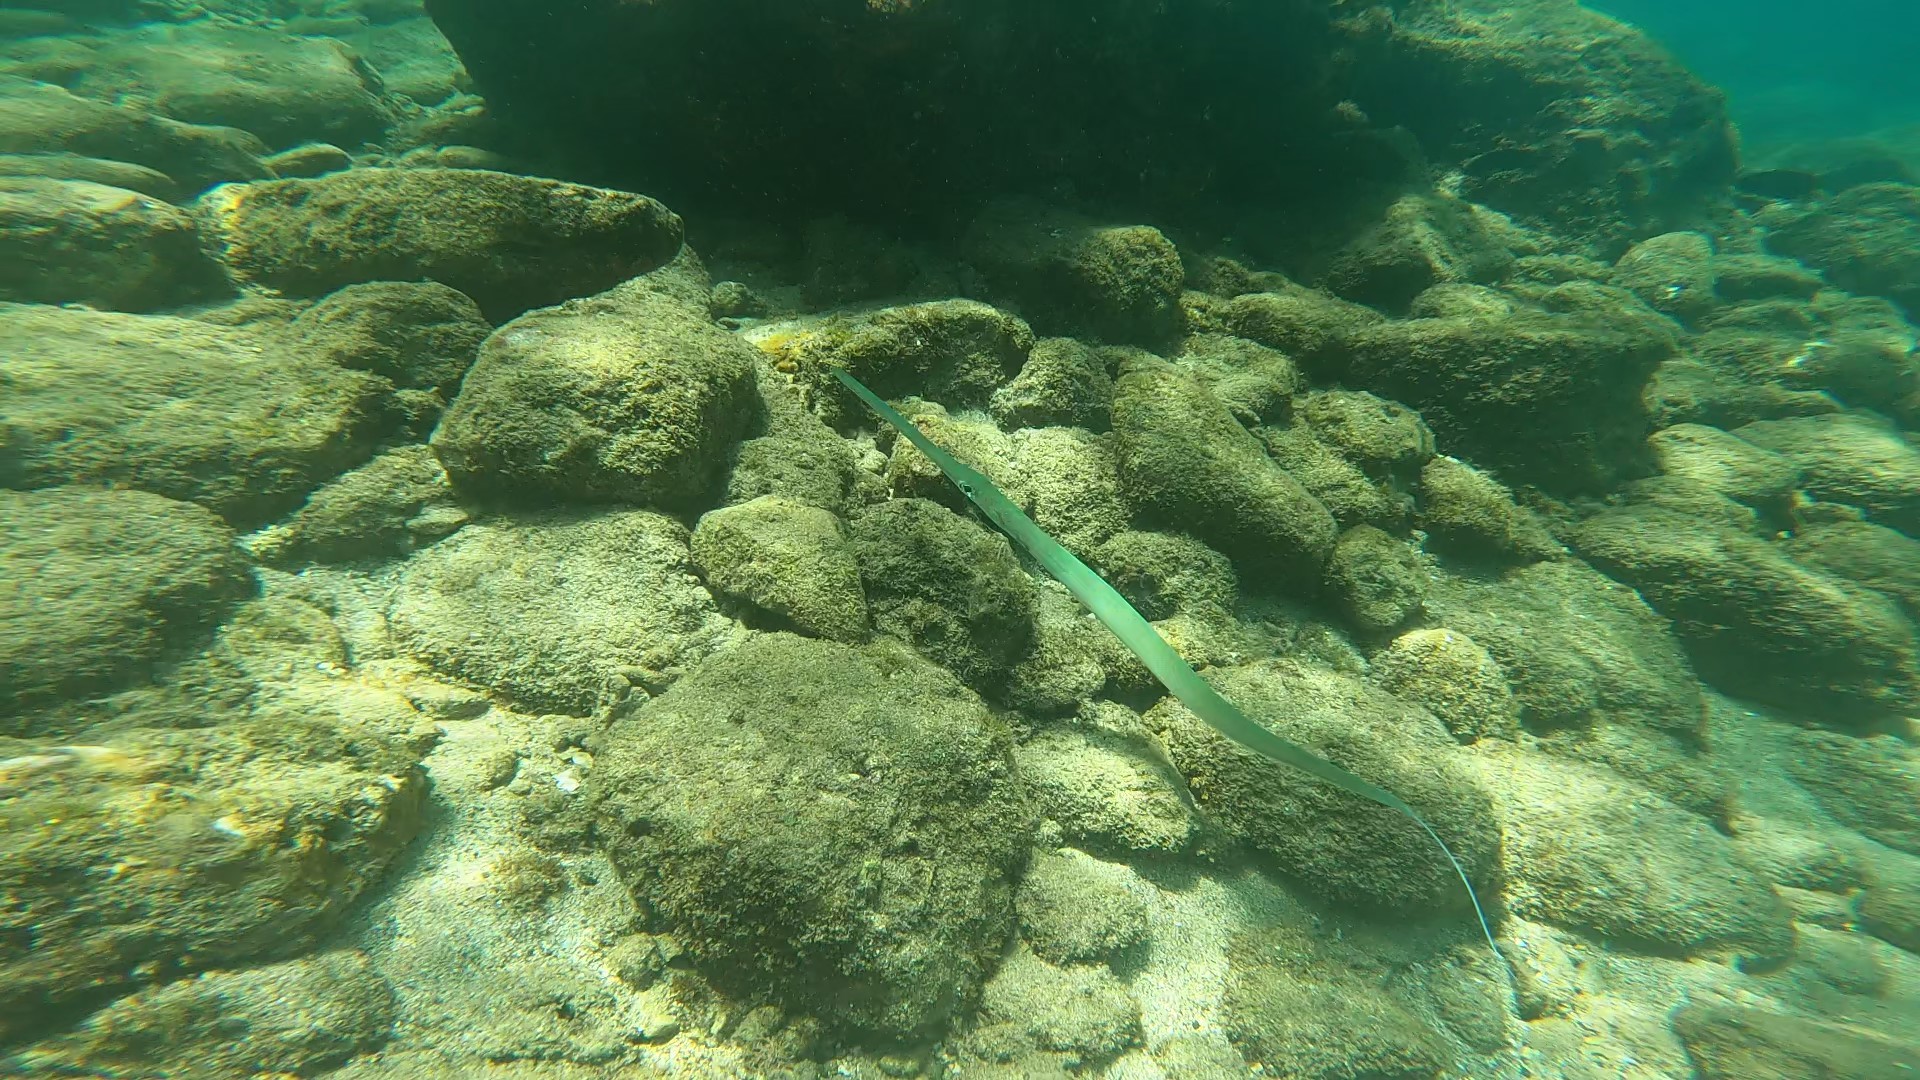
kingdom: Animalia
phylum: Chordata
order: Syngnathiformes
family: Fistulariidae
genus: Fistularia
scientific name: Fistularia commersonii
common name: Bluespotted cornetfish
